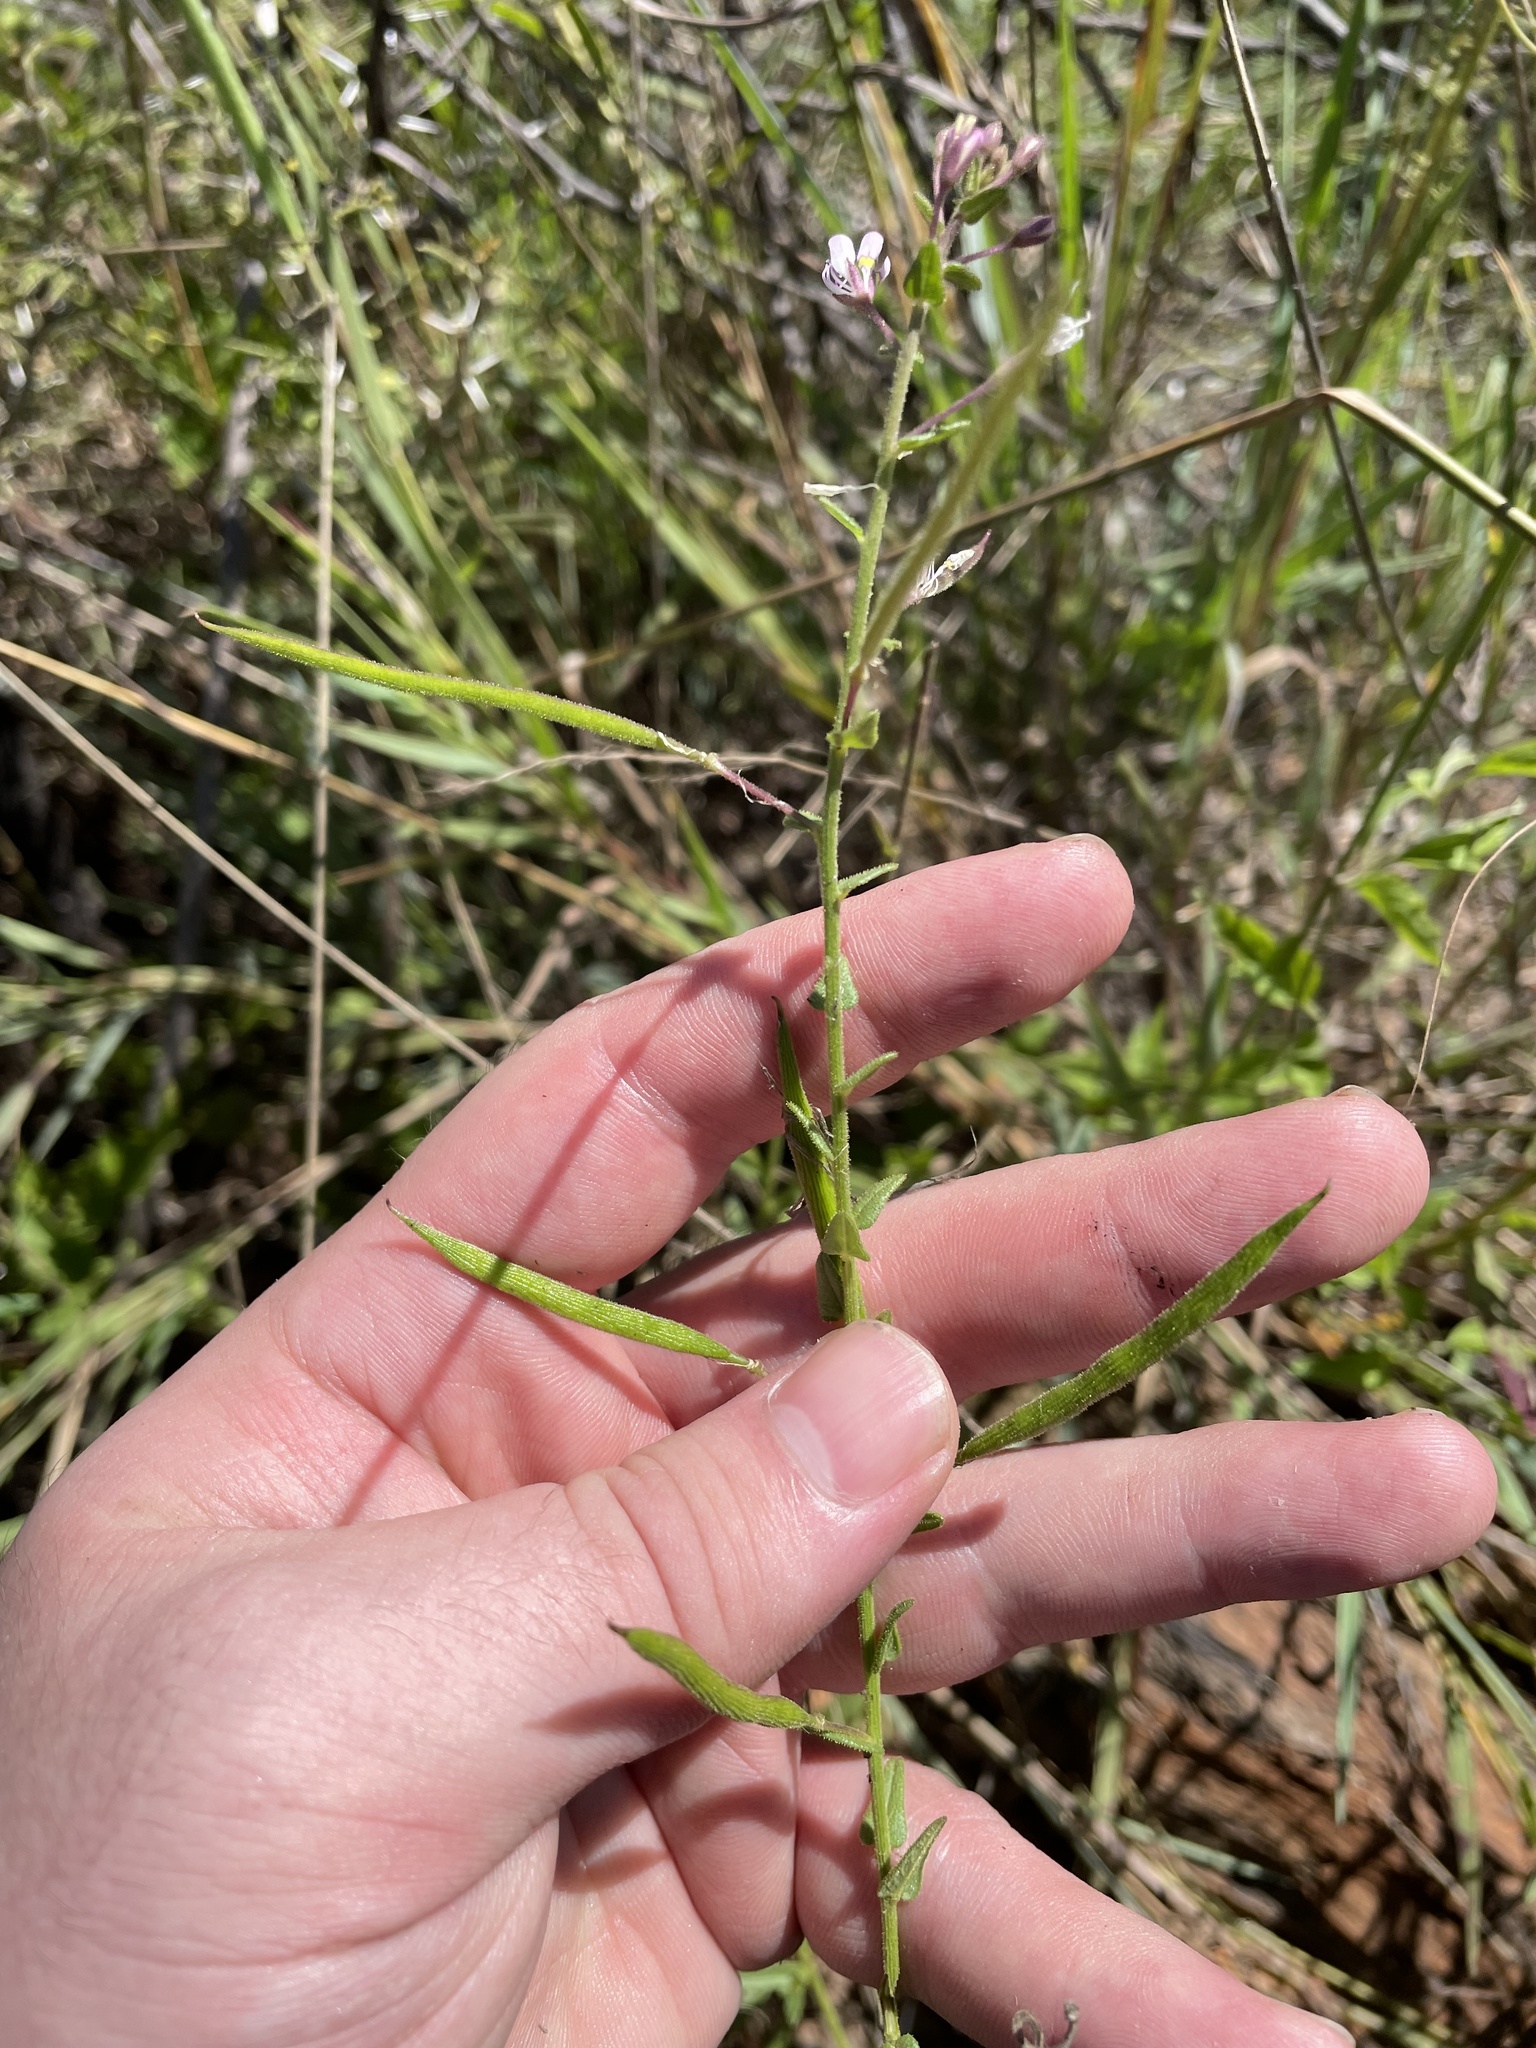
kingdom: Plantae
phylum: Tracheophyta
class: Magnoliopsida
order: Brassicales
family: Cleomaceae
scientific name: Cleomaceae
